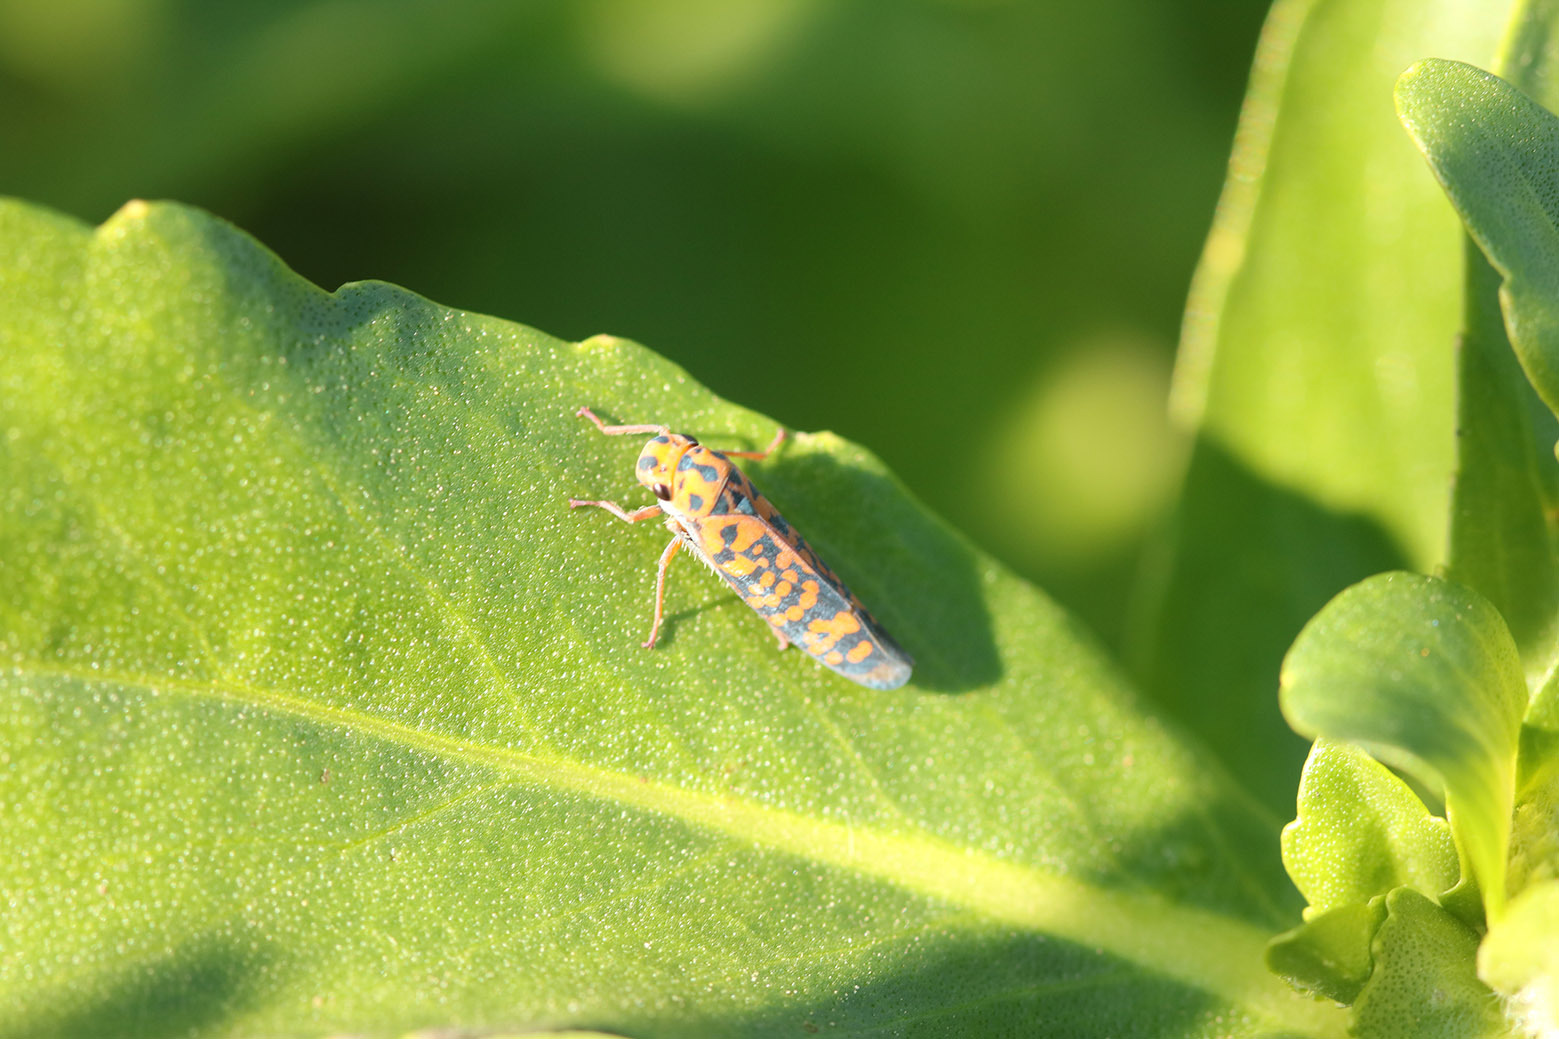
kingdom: Animalia
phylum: Arthropoda
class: Insecta
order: Hemiptera
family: Cicadellidae
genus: Pawiloma
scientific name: Pawiloma victima
